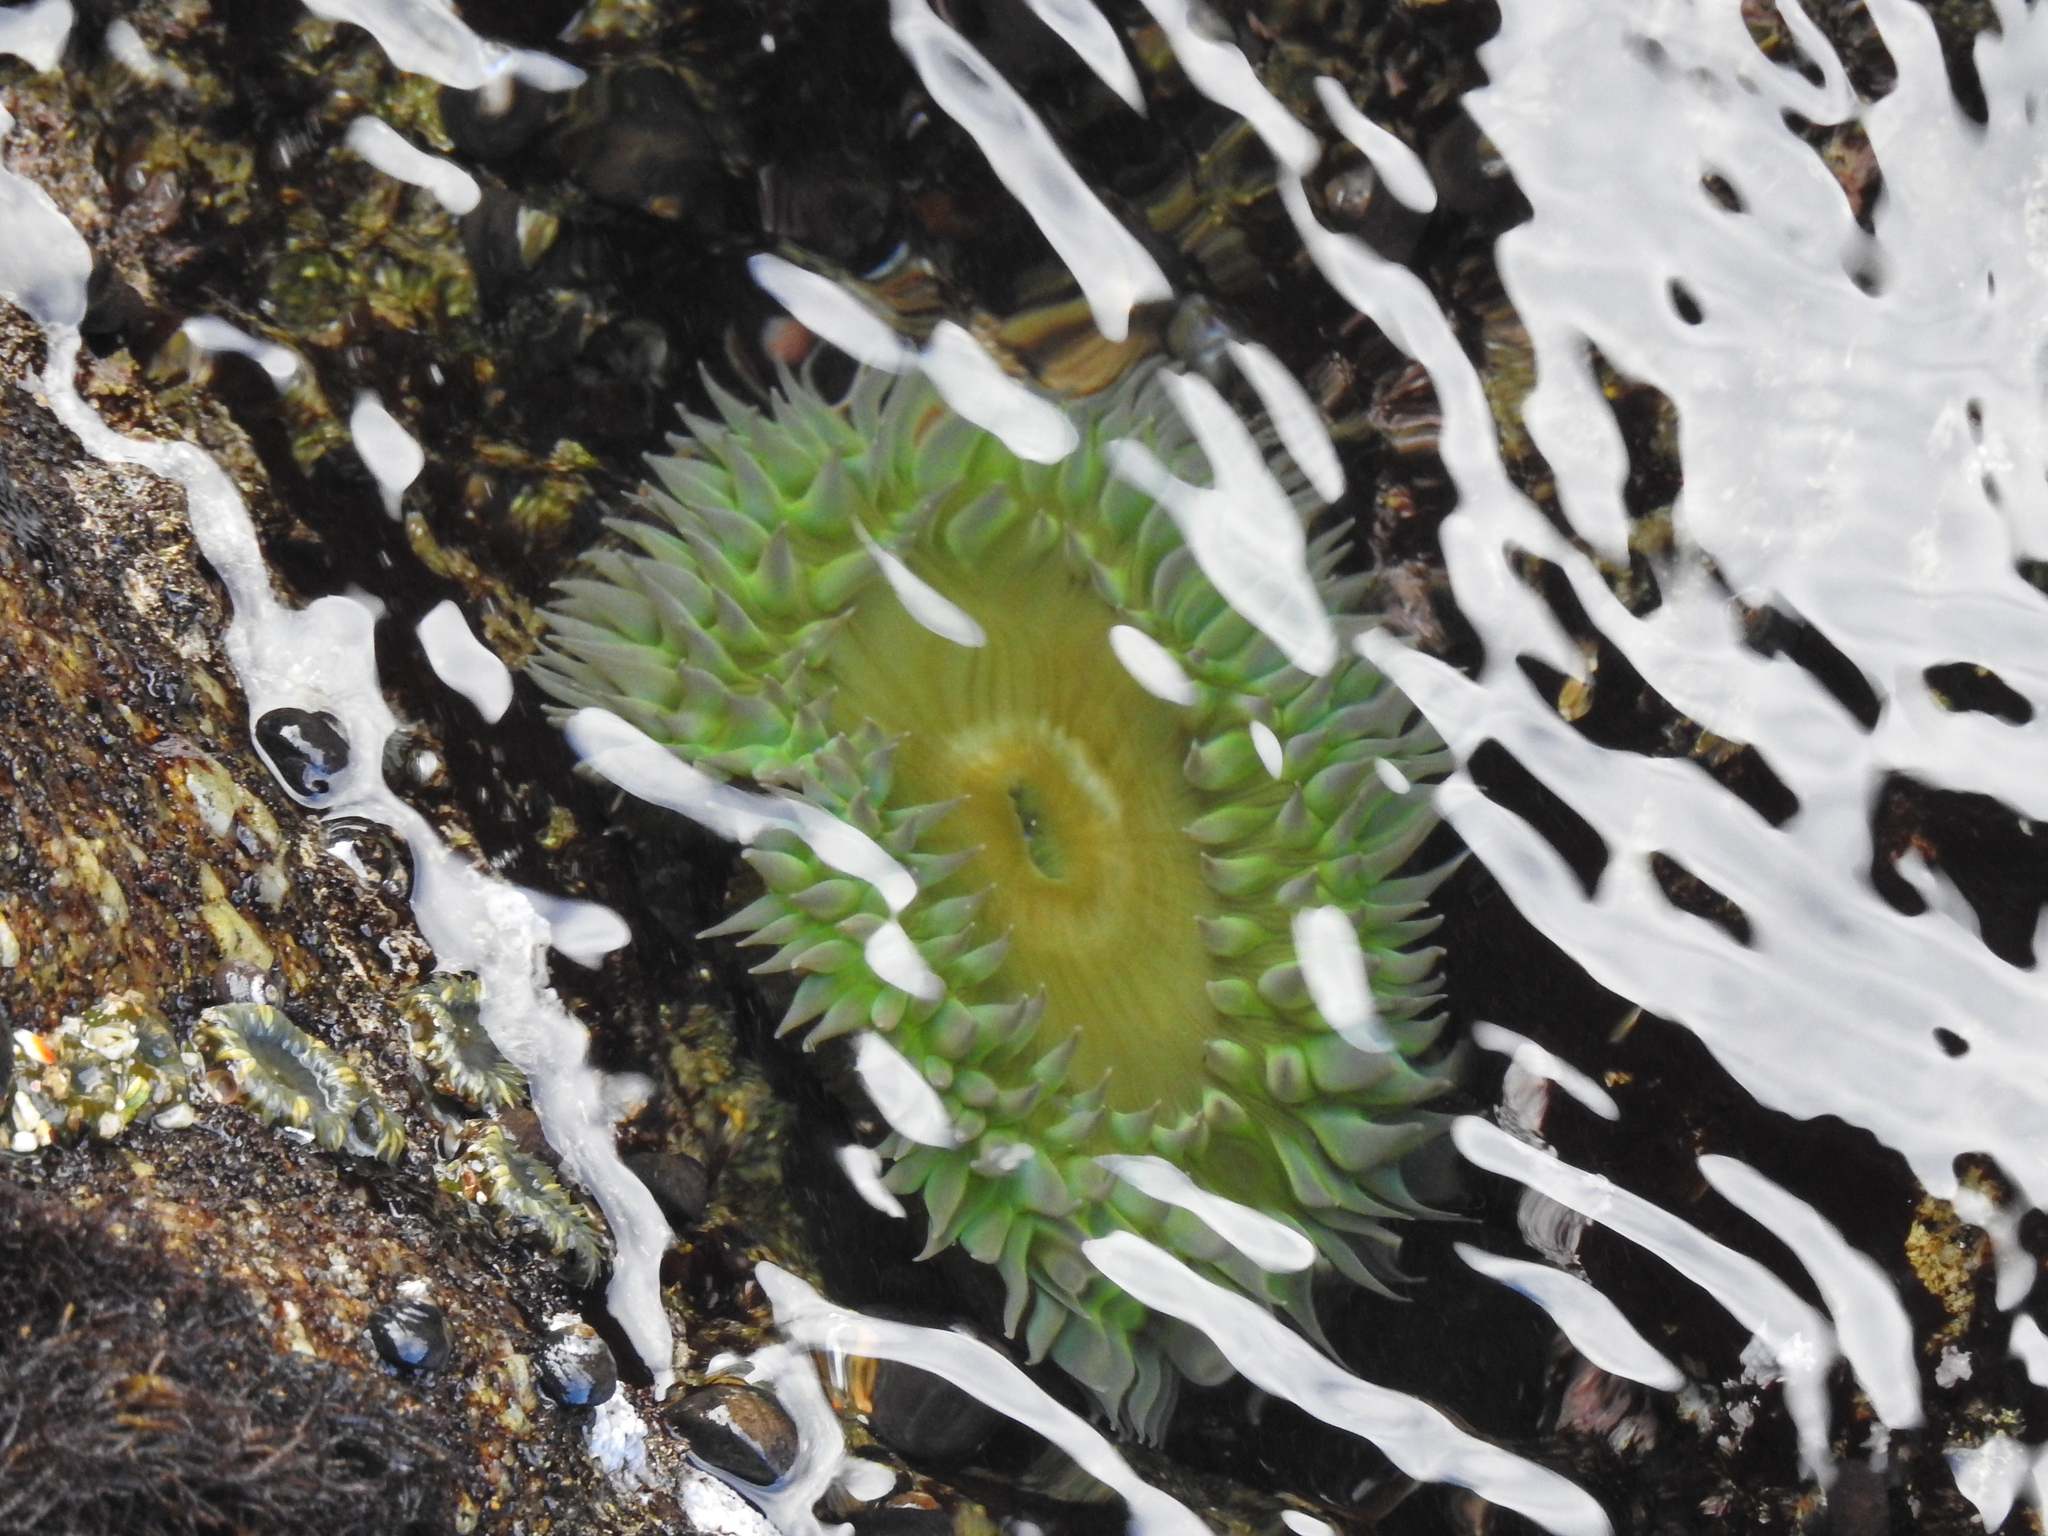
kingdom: Animalia
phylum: Cnidaria
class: Anthozoa
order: Actiniaria
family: Actiniidae
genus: Anthopleura
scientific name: Anthopleura xanthogrammica
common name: Giant green anemone
